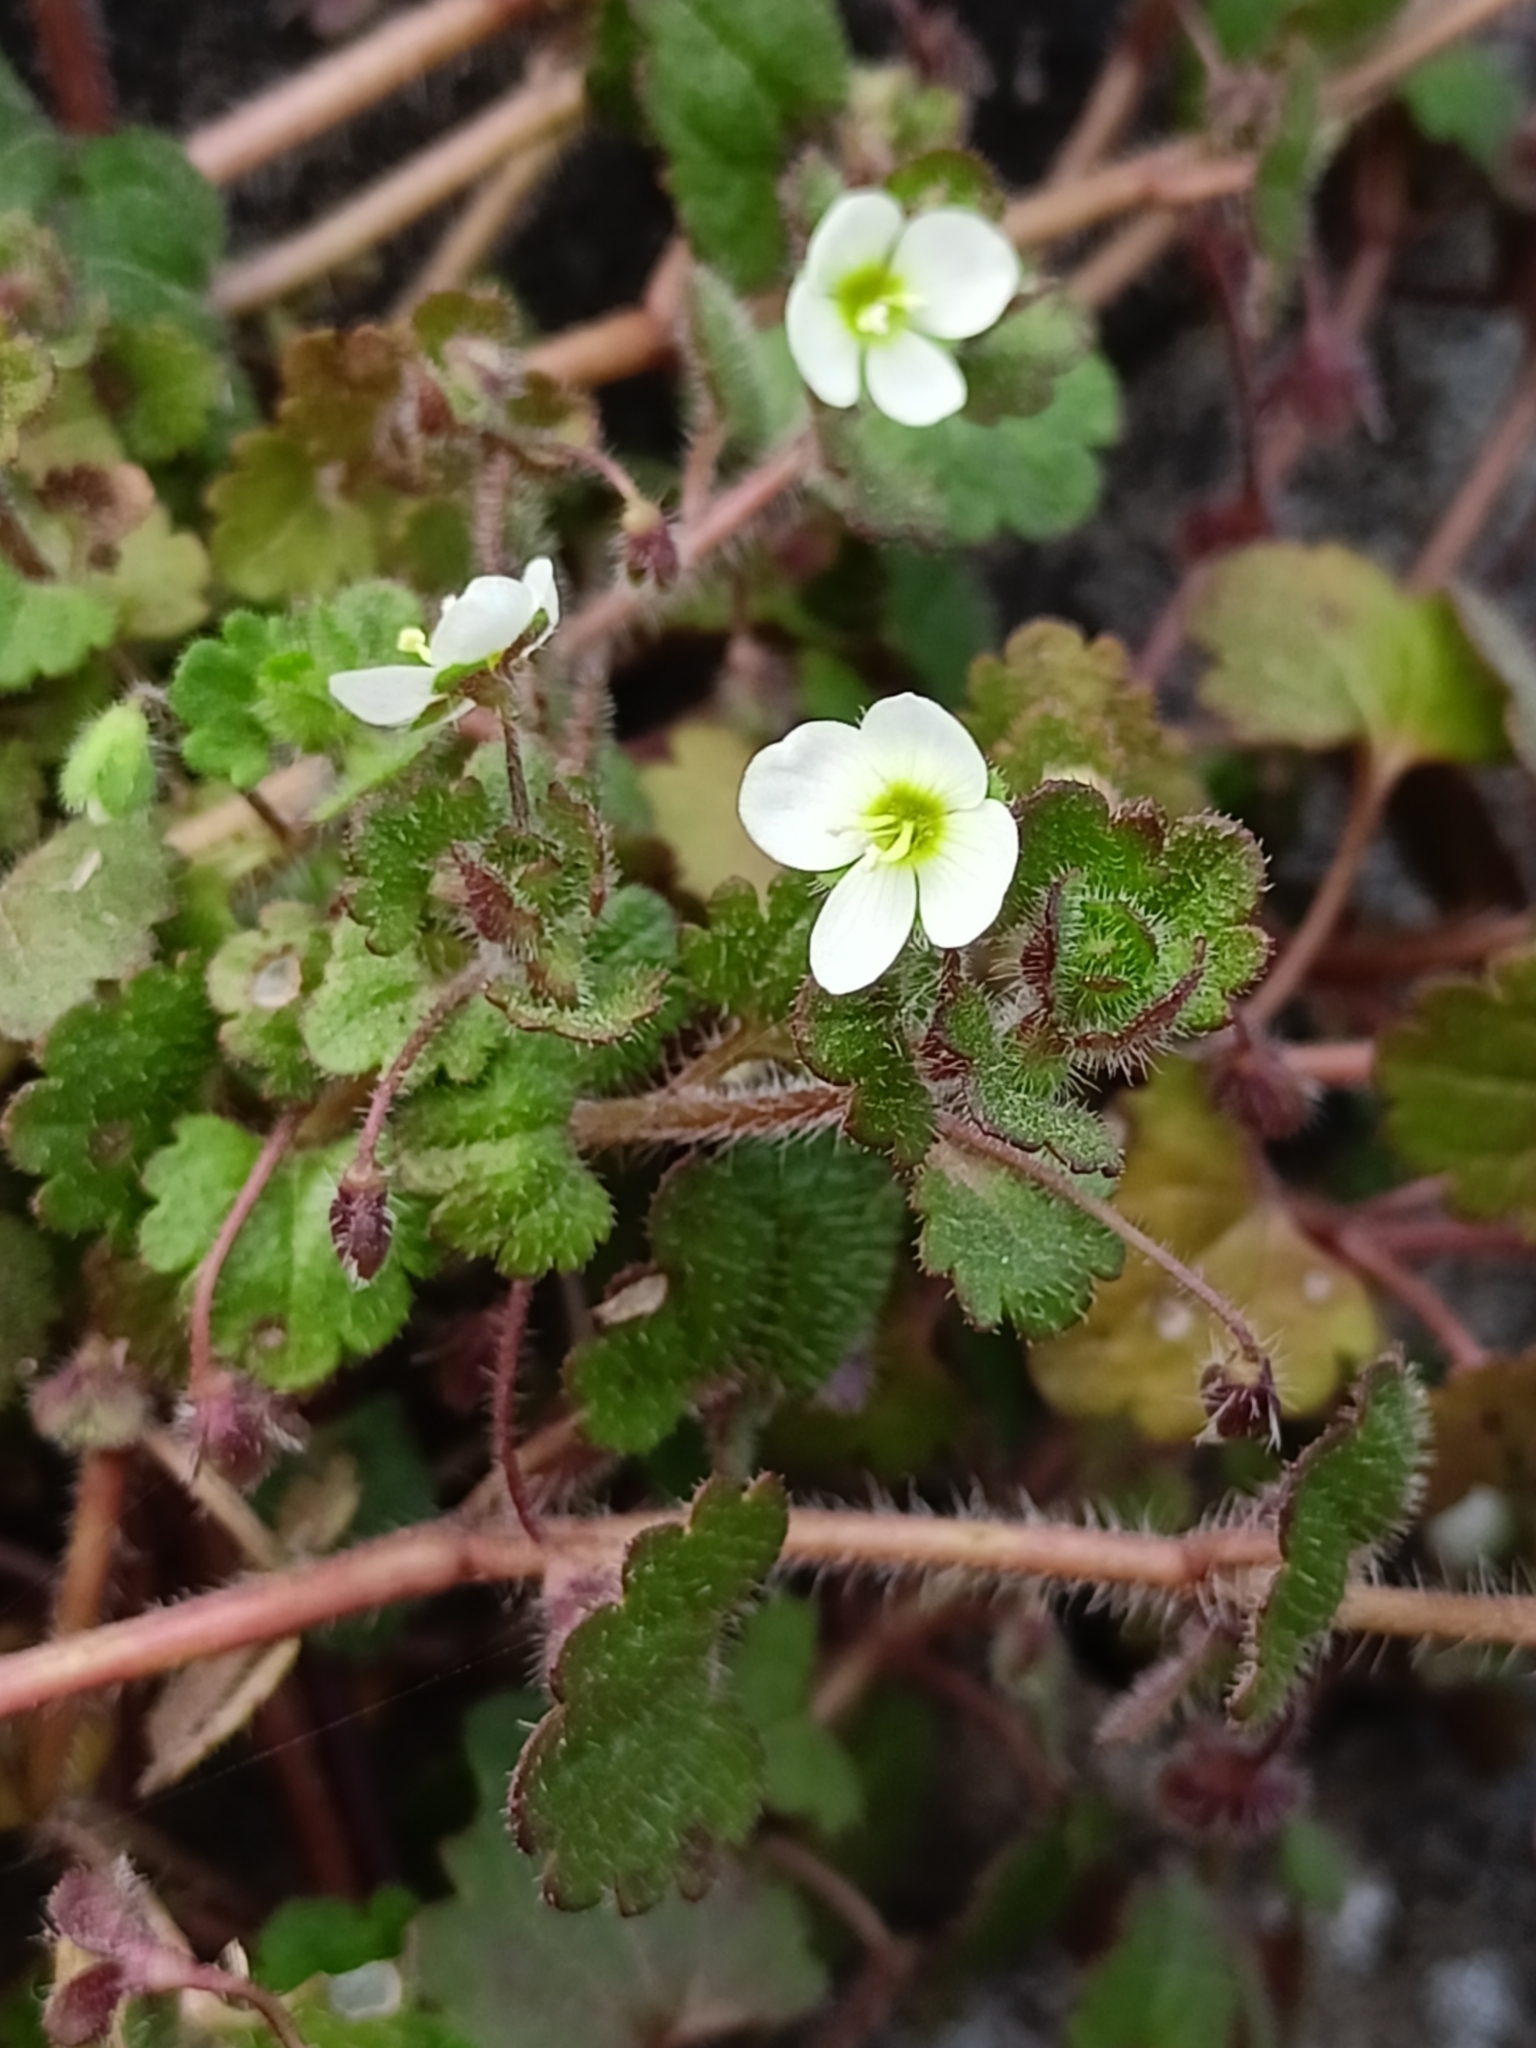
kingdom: Plantae
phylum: Tracheophyta
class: Magnoliopsida
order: Lamiales
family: Plantaginaceae
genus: Veronica
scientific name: Veronica cymbalaria
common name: Pale speedwell
